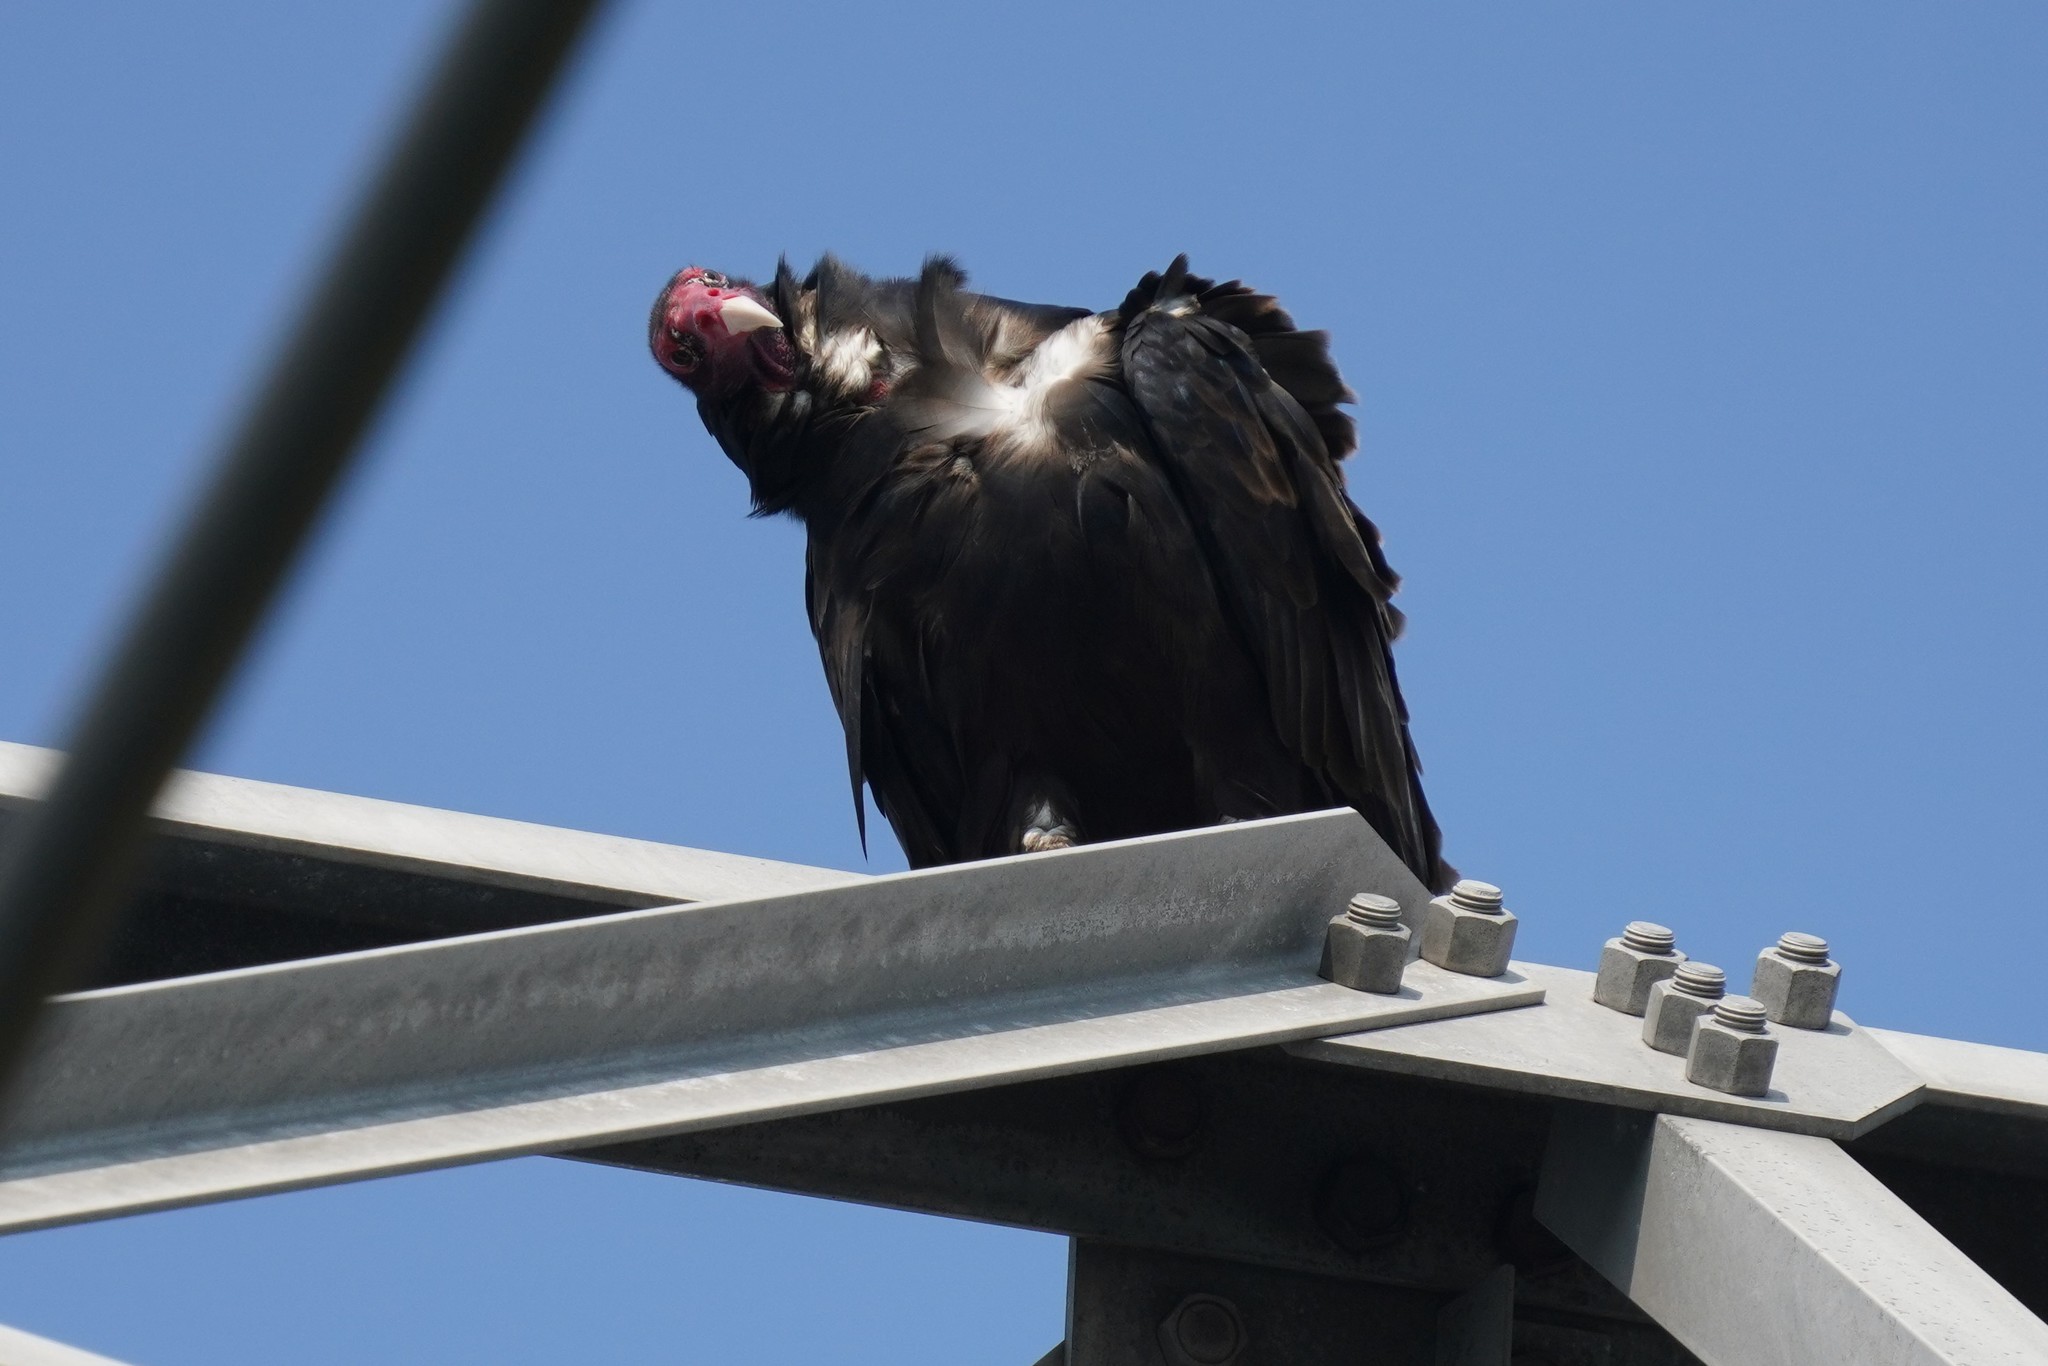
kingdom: Animalia
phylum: Chordata
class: Aves
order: Accipitriformes
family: Cathartidae
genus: Cathartes
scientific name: Cathartes aura
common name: Turkey vulture
